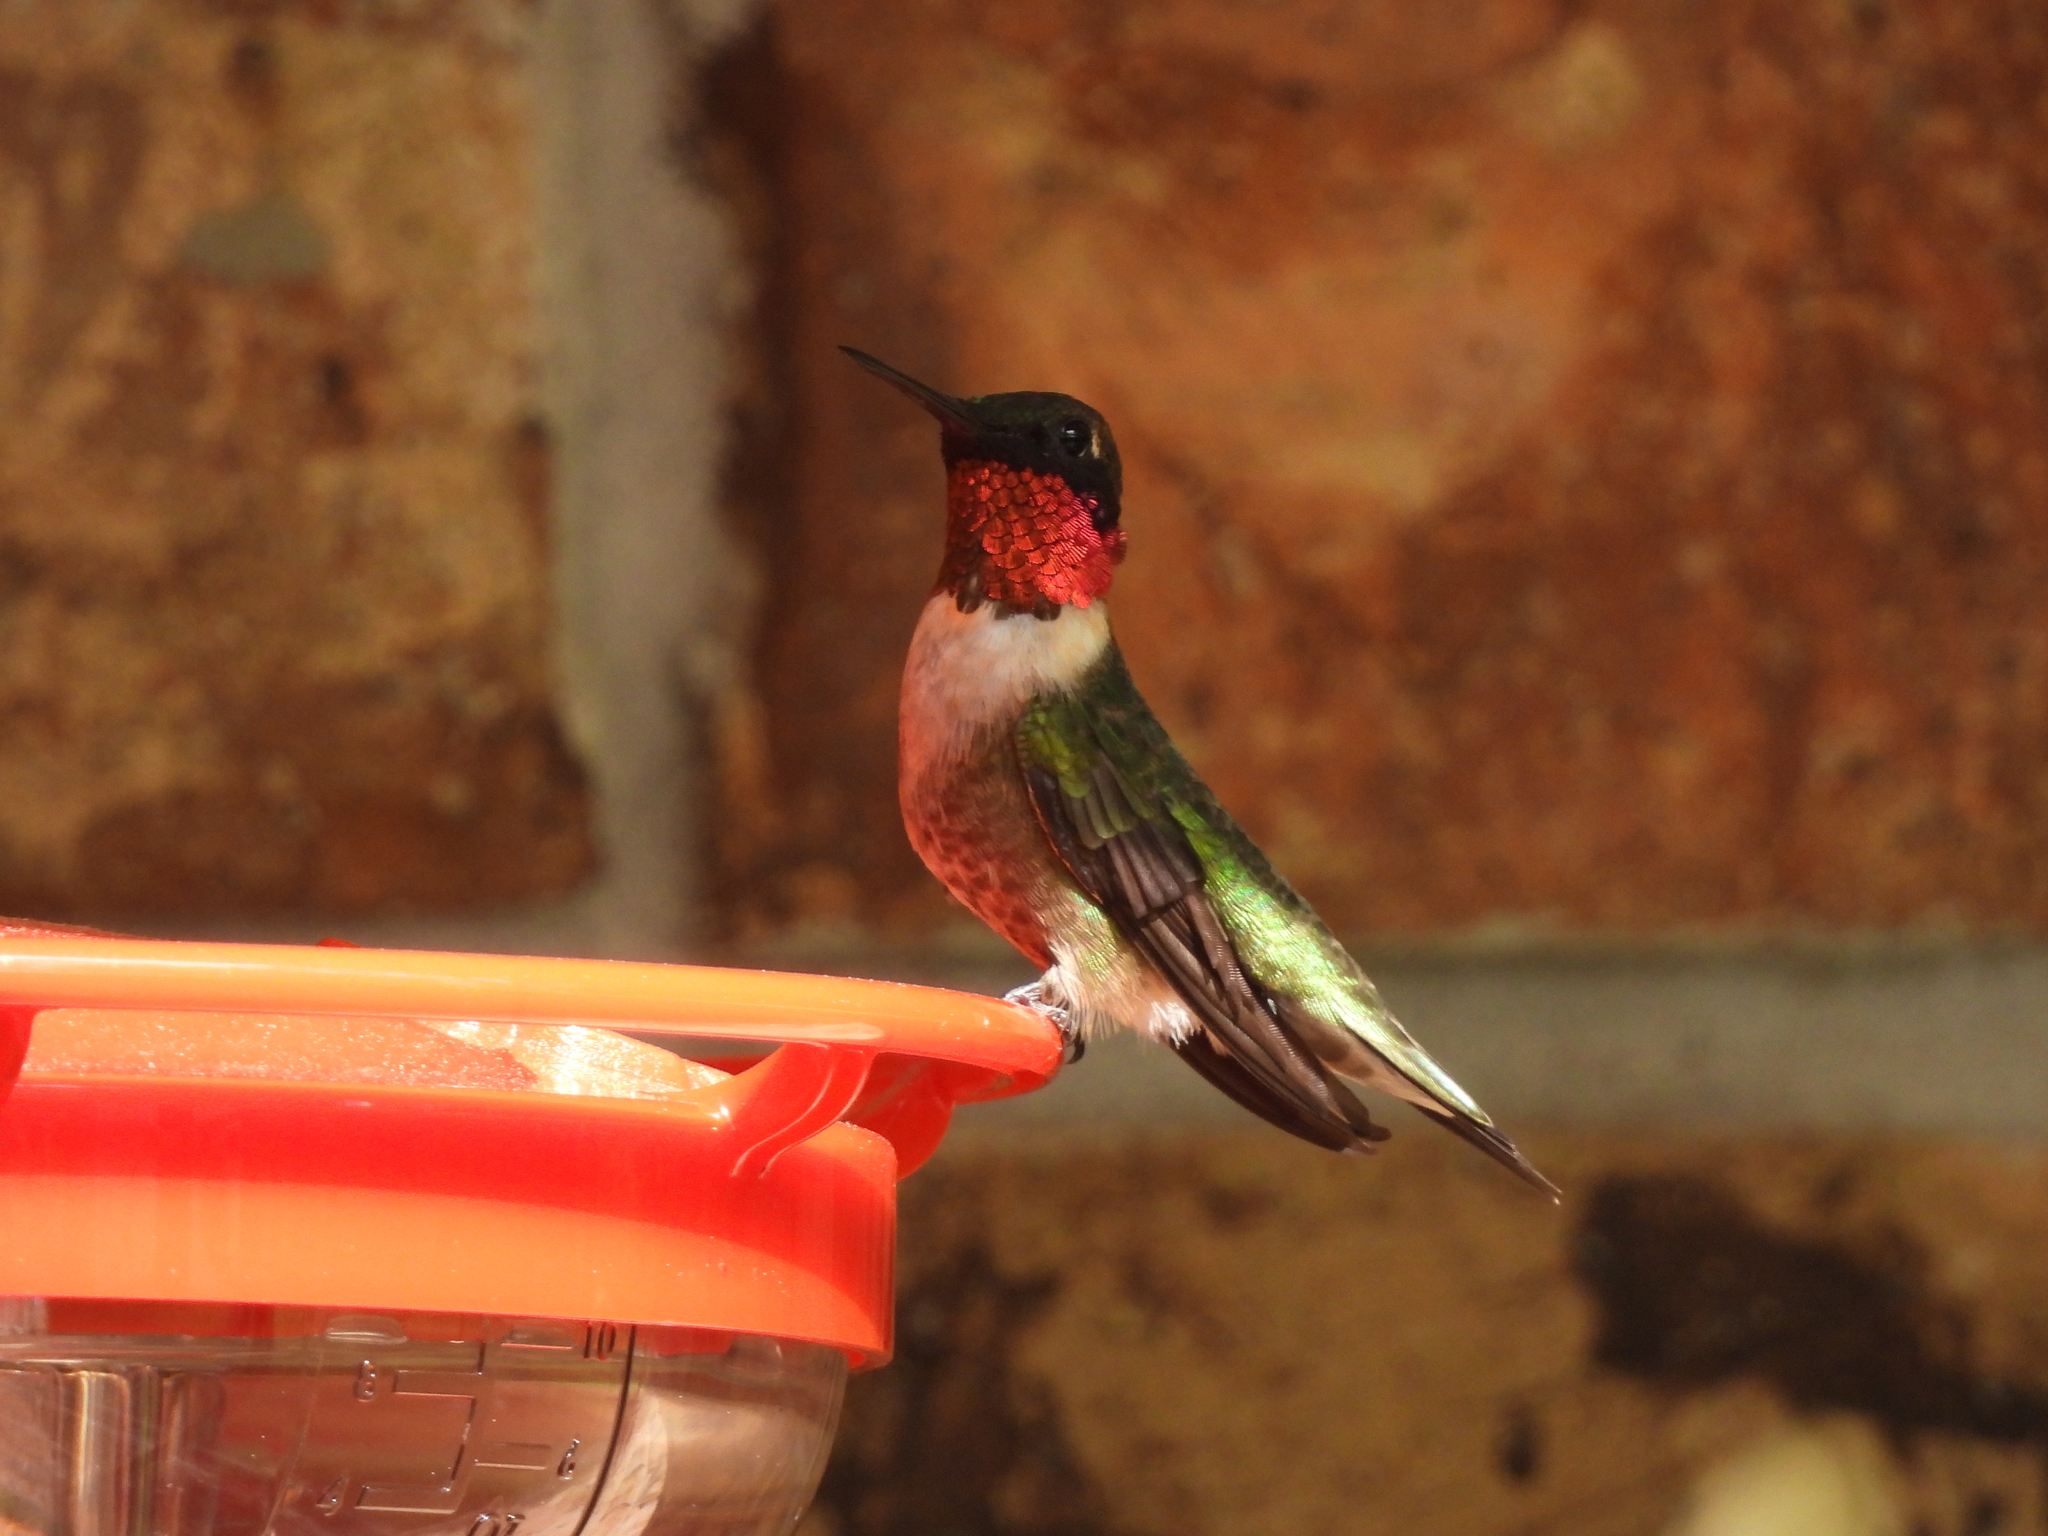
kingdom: Animalia
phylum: Chordata
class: Aves
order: Apodiformes
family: Trochilidae
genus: Archilochus
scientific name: Archilochus colubris
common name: Ruby-throated hummingbird
